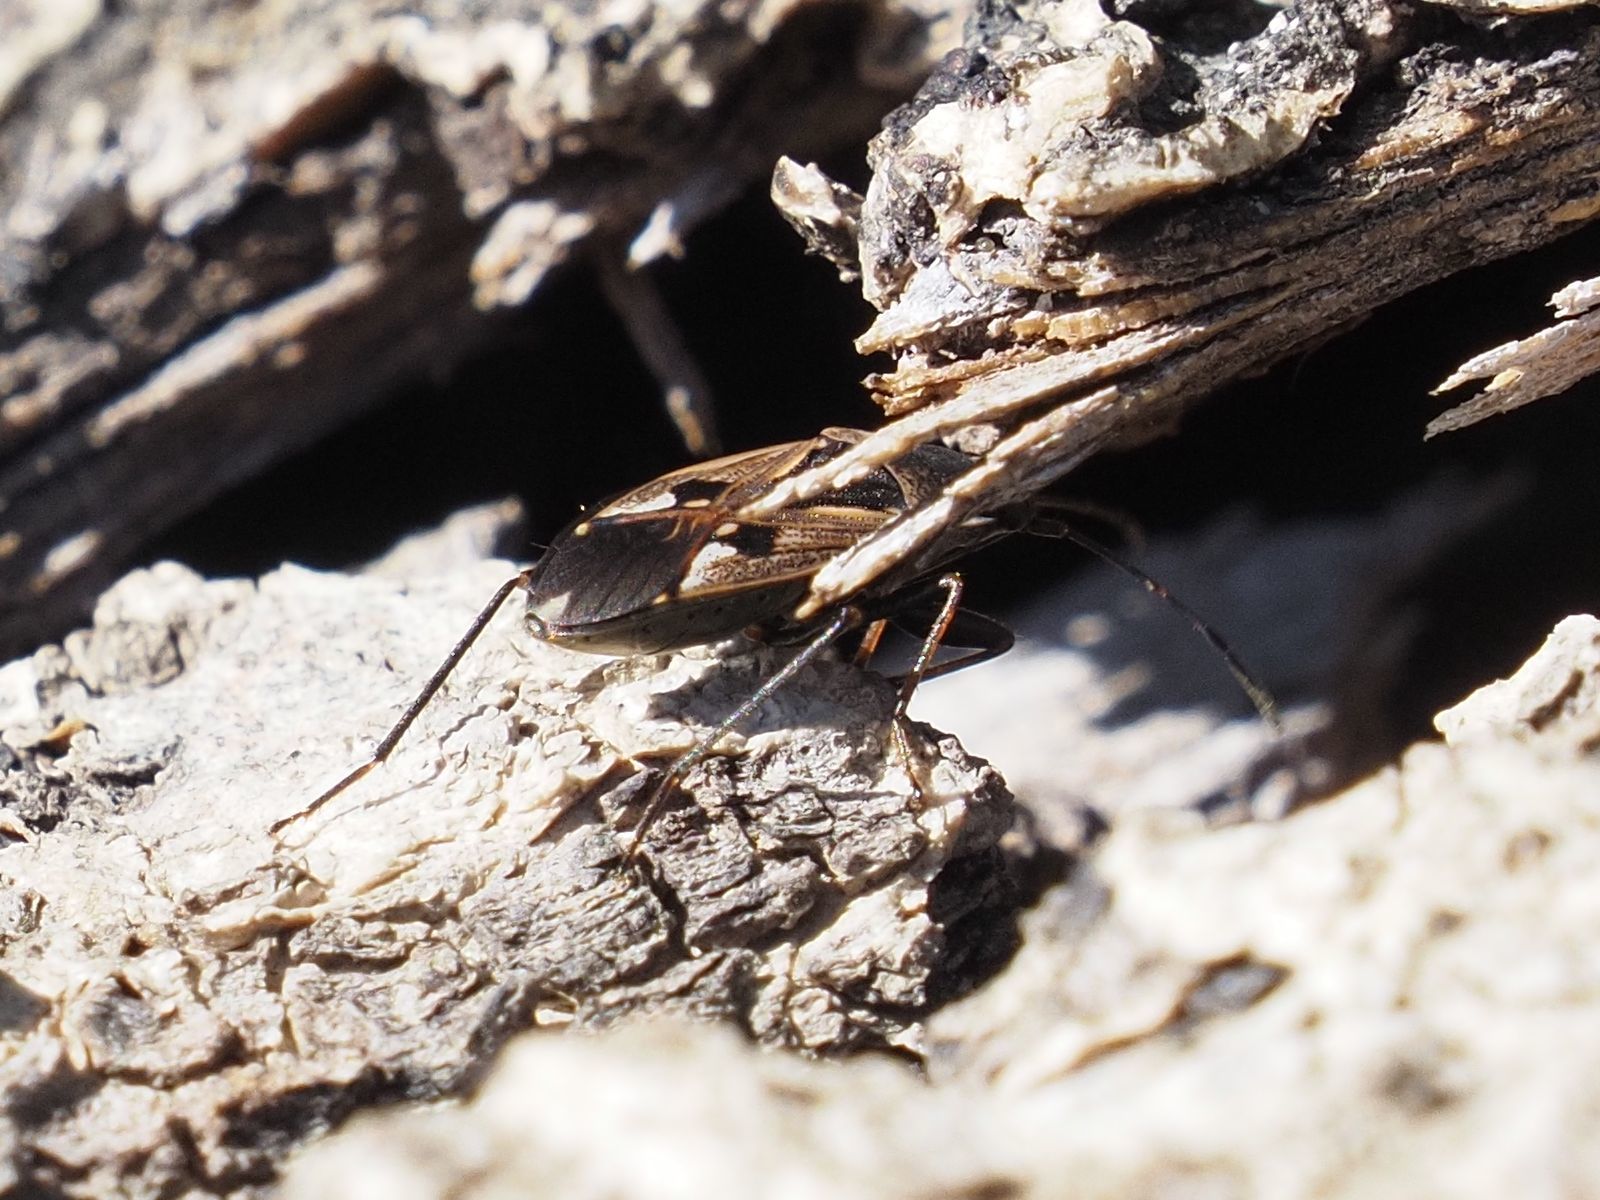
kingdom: Animalia
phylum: Arthropoda
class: Insecta
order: Hemiptera
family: Rhyparochromidae
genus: Rhyparochromus
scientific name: Rhyparochromus vulgaris
